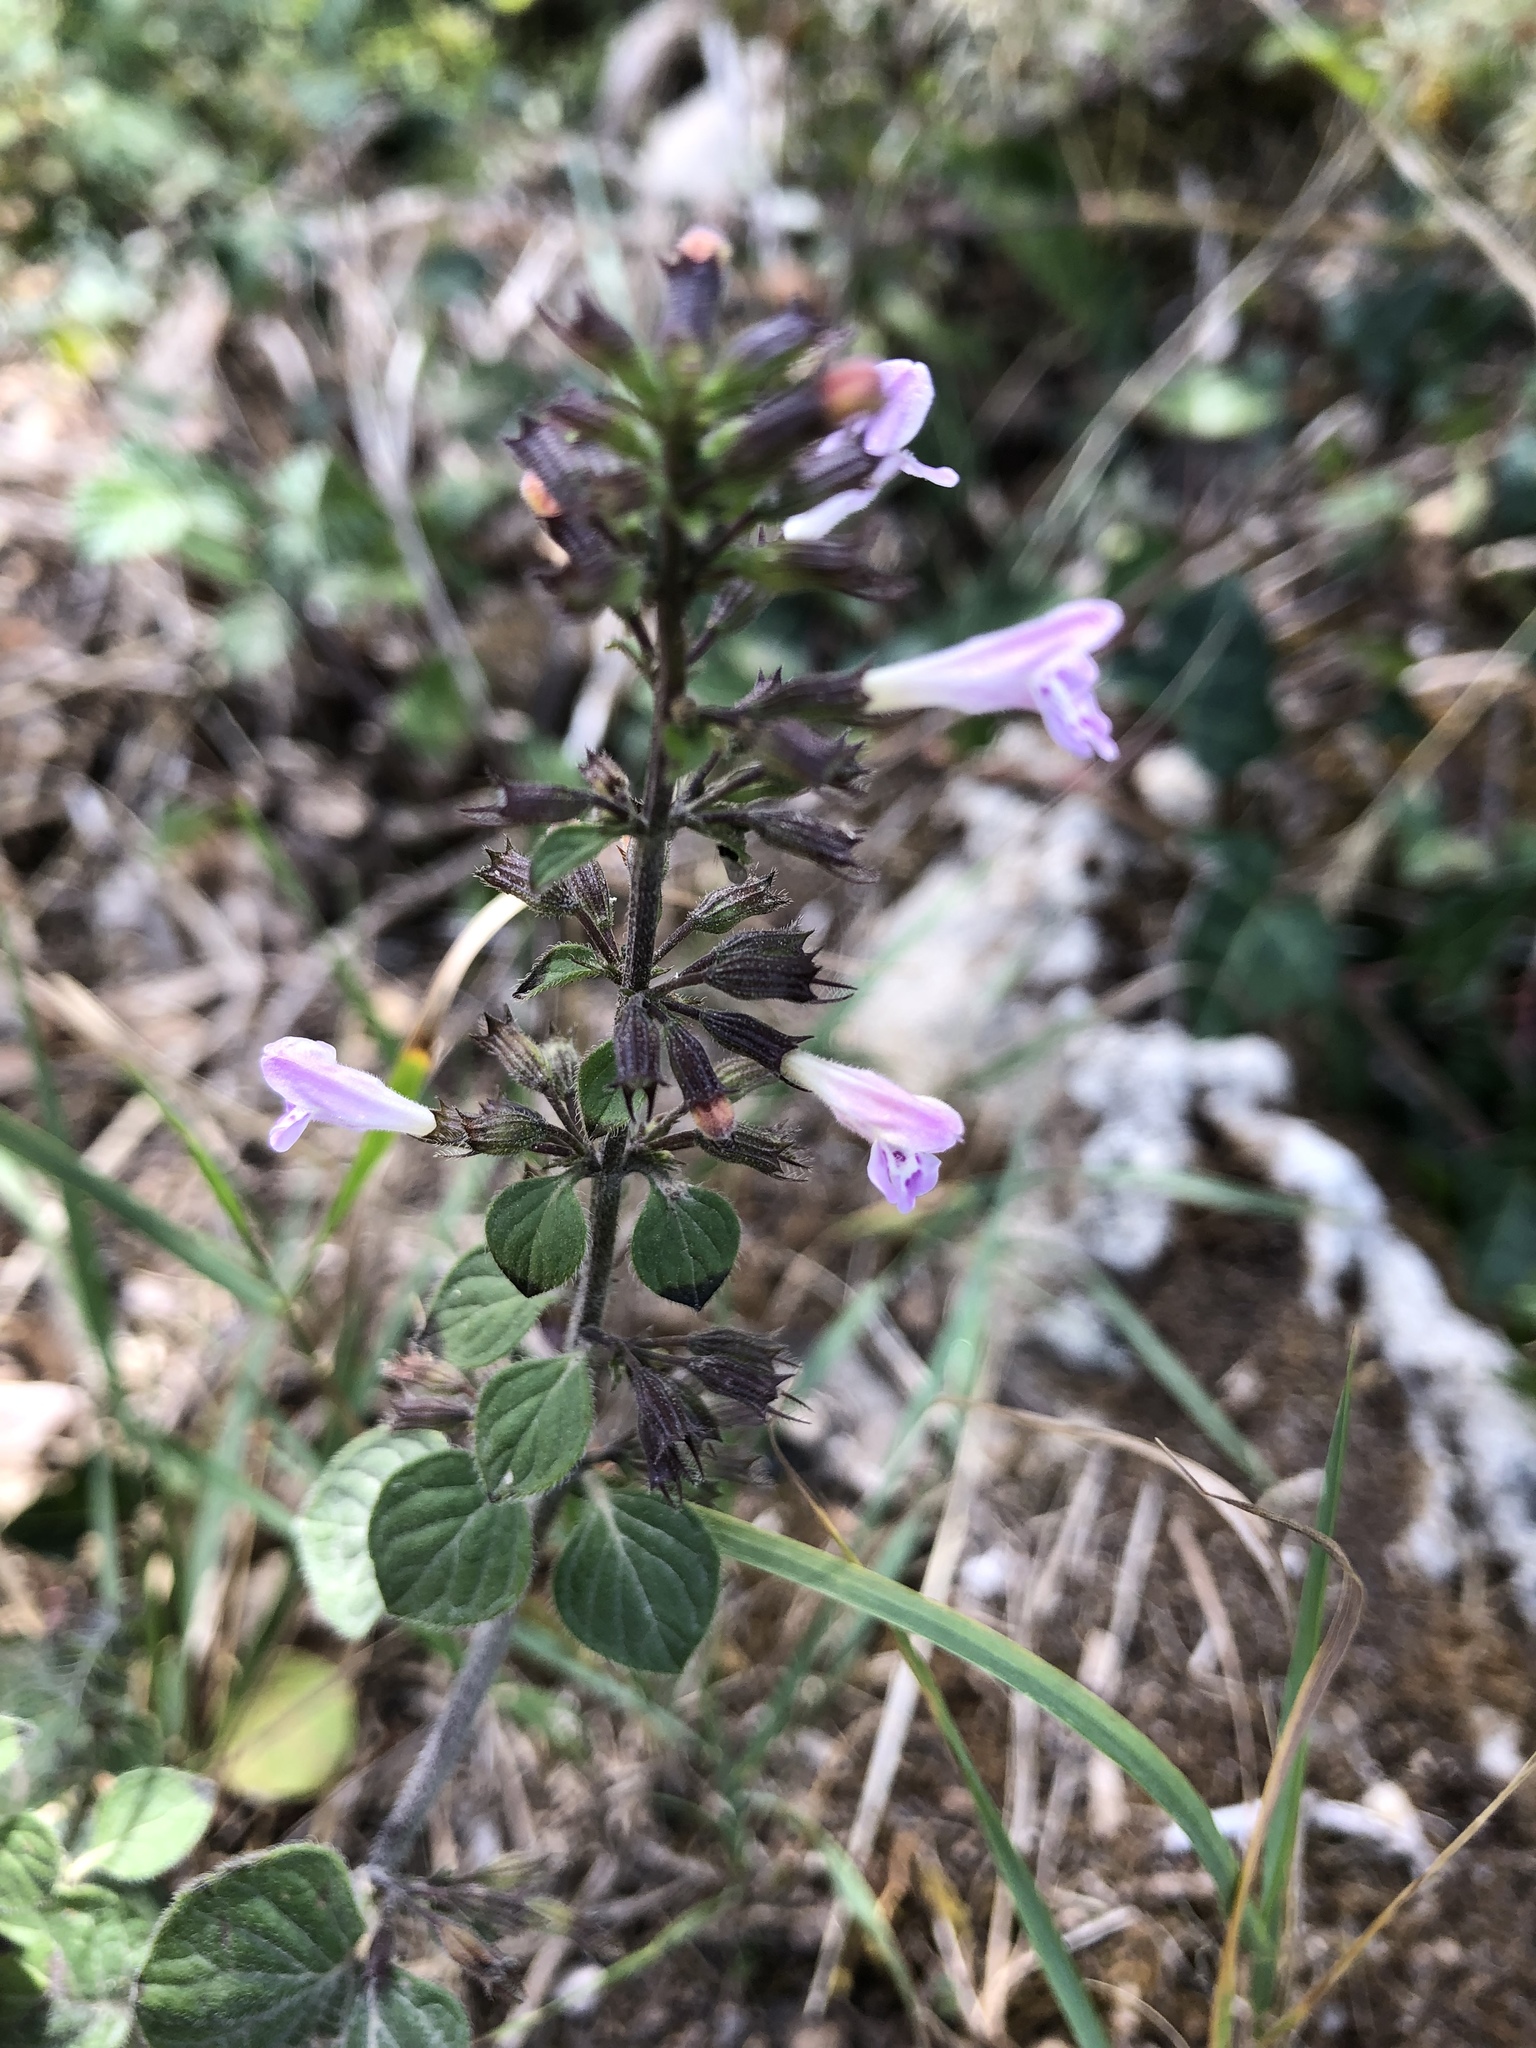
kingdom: Plantae
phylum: Tracheophyta
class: Magnoliopsida
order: Lamiales
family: Lamiaceae
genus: Clinopodium
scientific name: Clinopodium menthifolium
